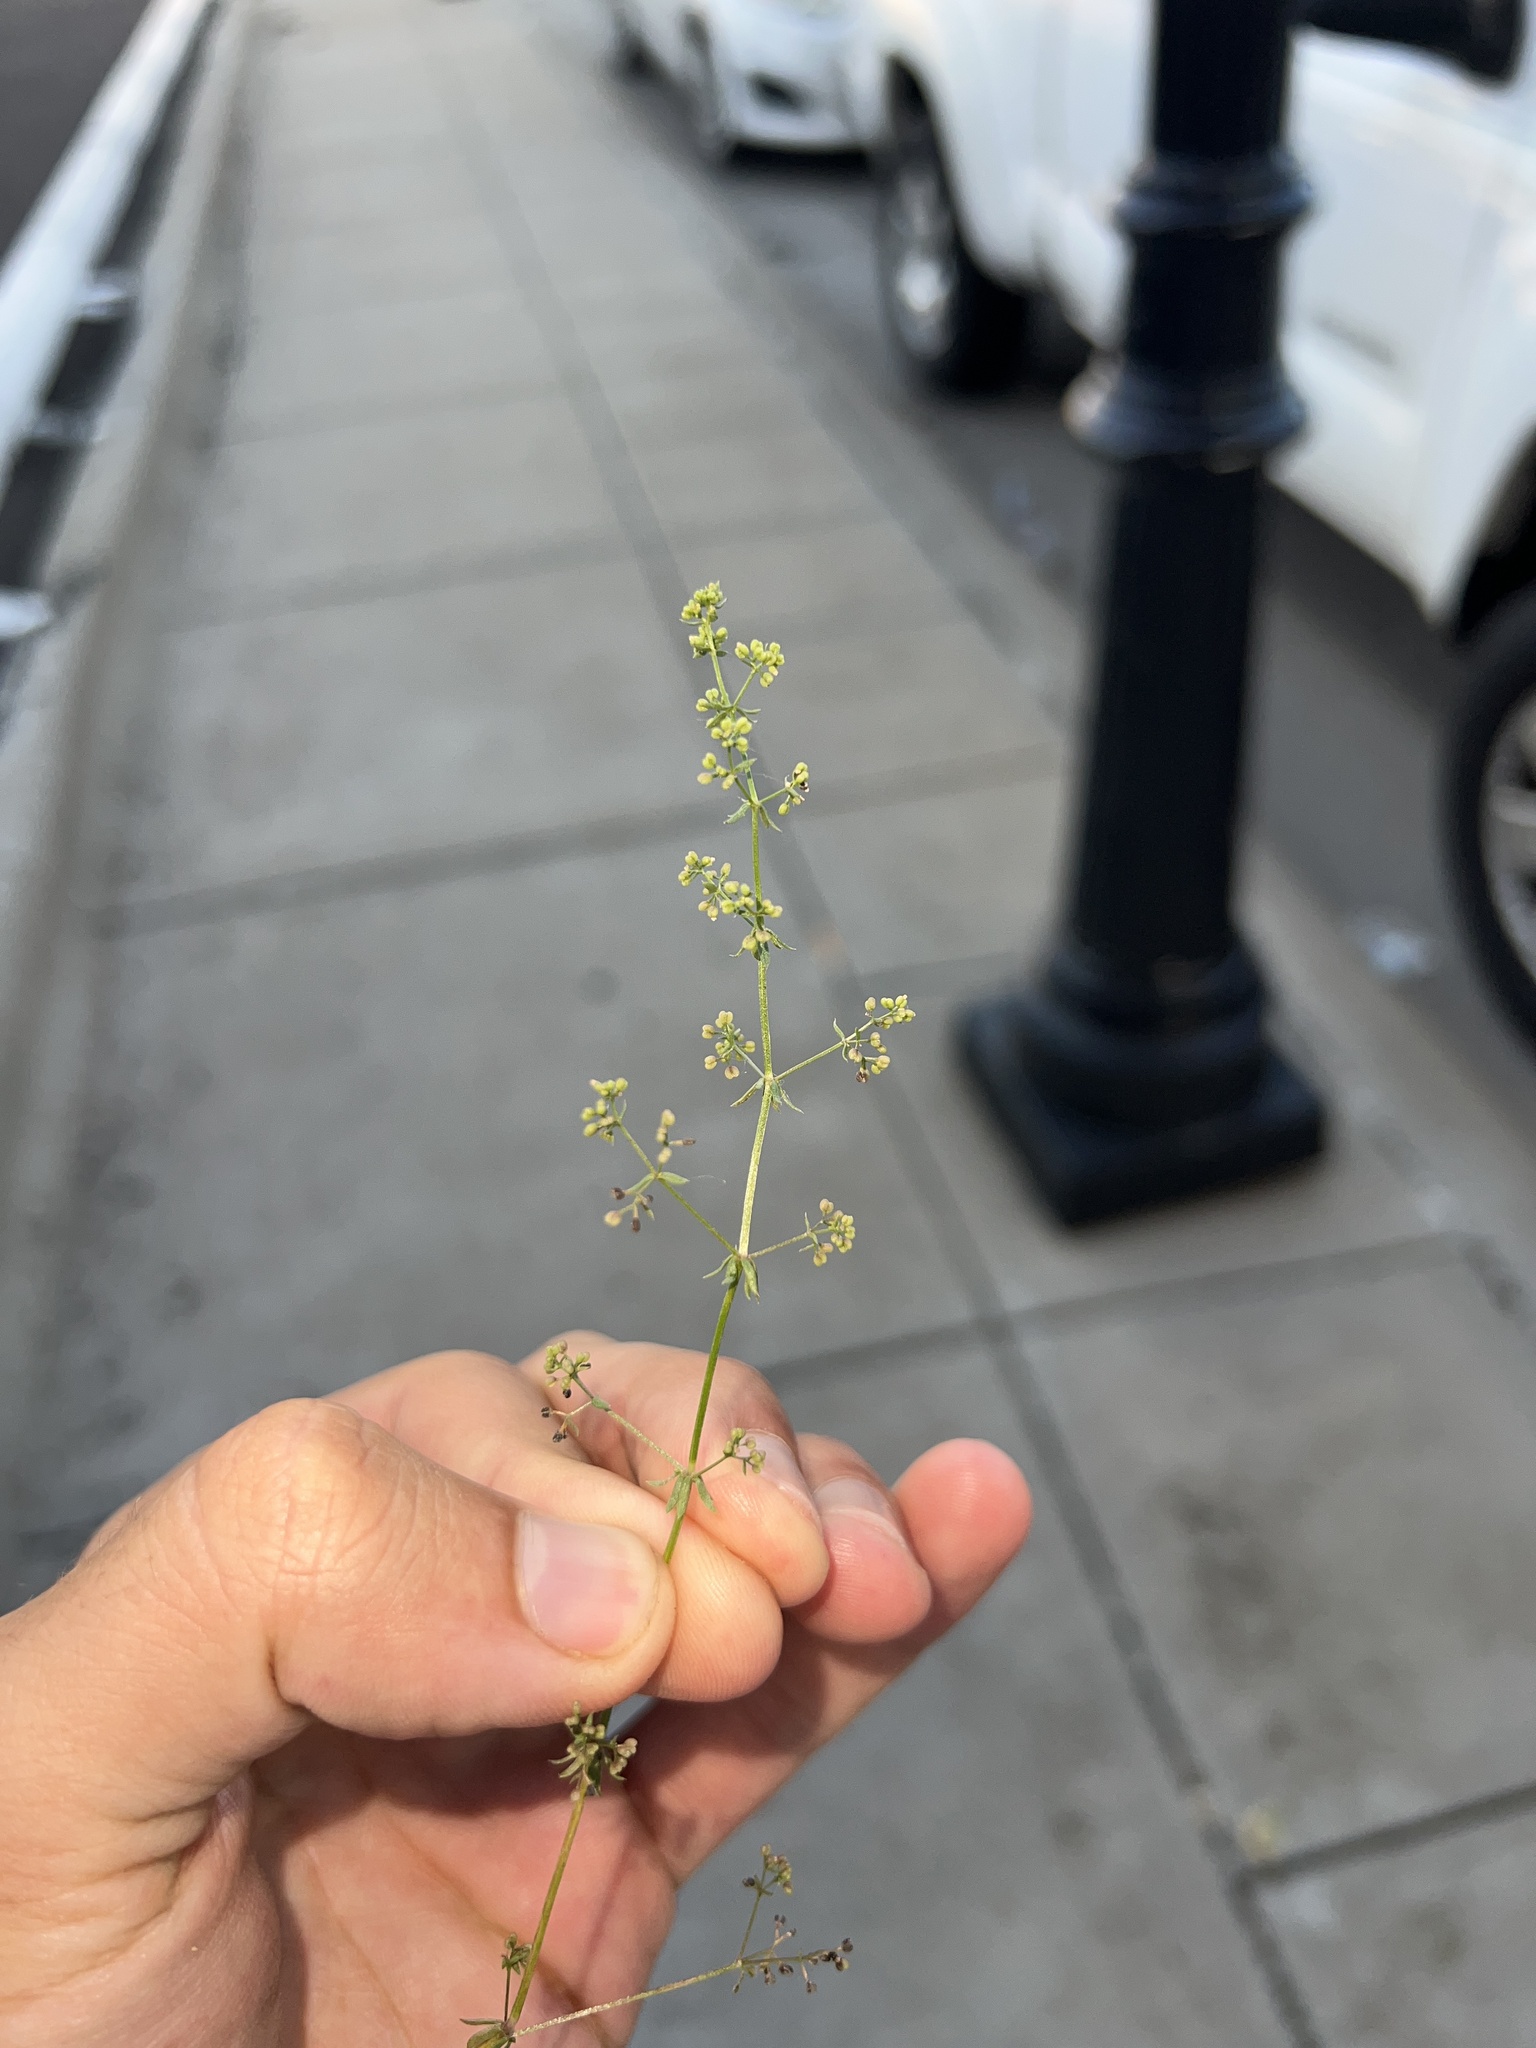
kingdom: Plantae
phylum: Tracheophyta
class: Magnoliopsida
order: Gentianales
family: Rubiaceae
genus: Galium
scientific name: Galium anglicum
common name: English bedstraw
